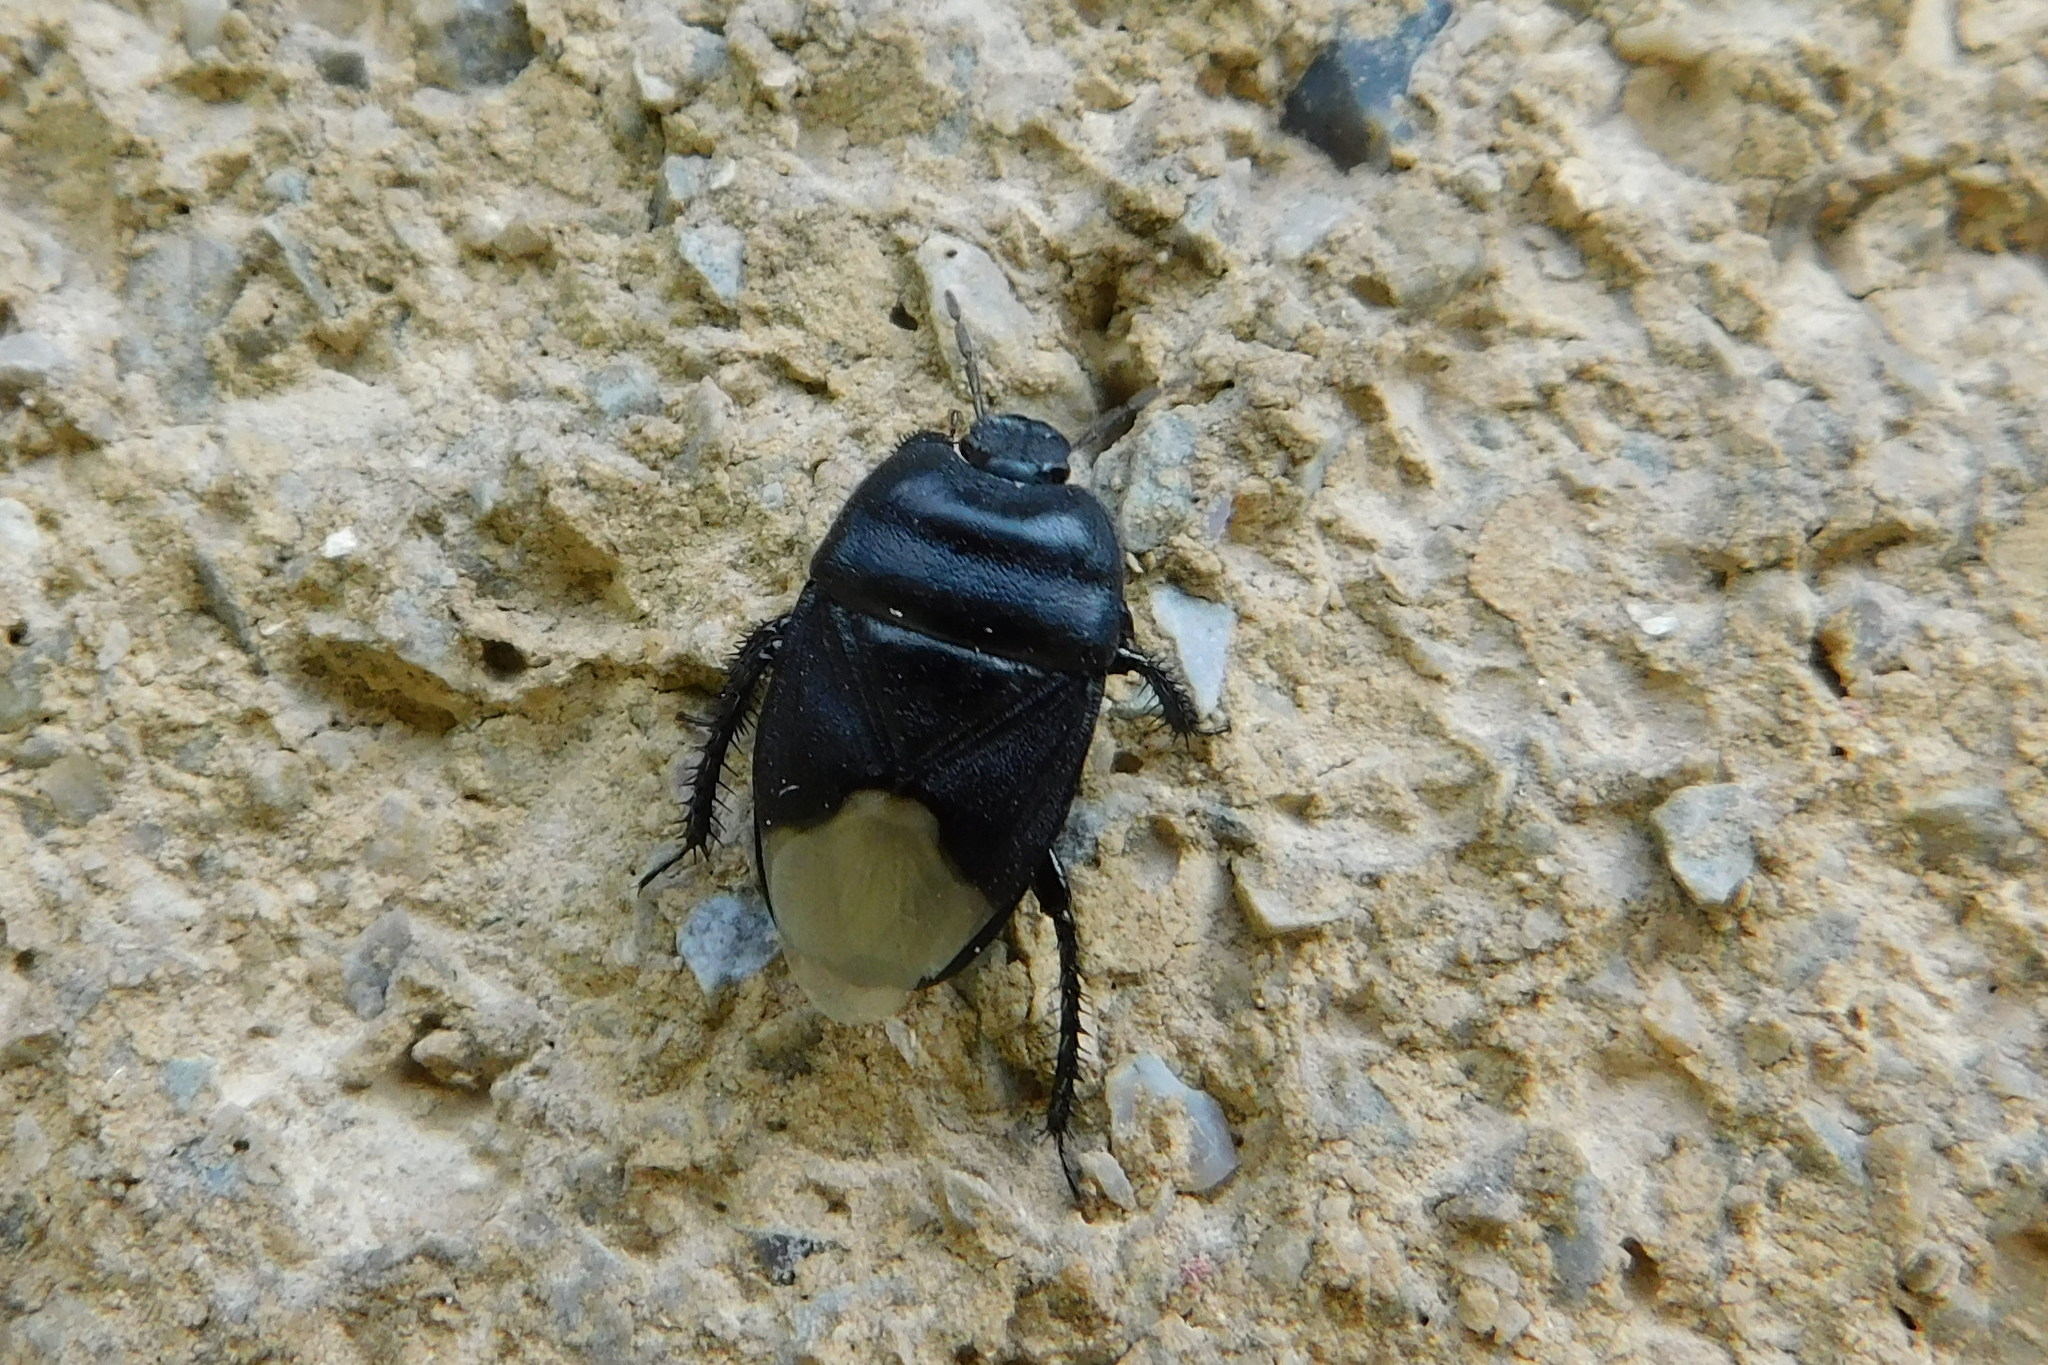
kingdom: Animalia
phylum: Arthropoda
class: Insecta
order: Hemiptera
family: Cydnidae
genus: Cydnus
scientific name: Cydnus aterrimus
